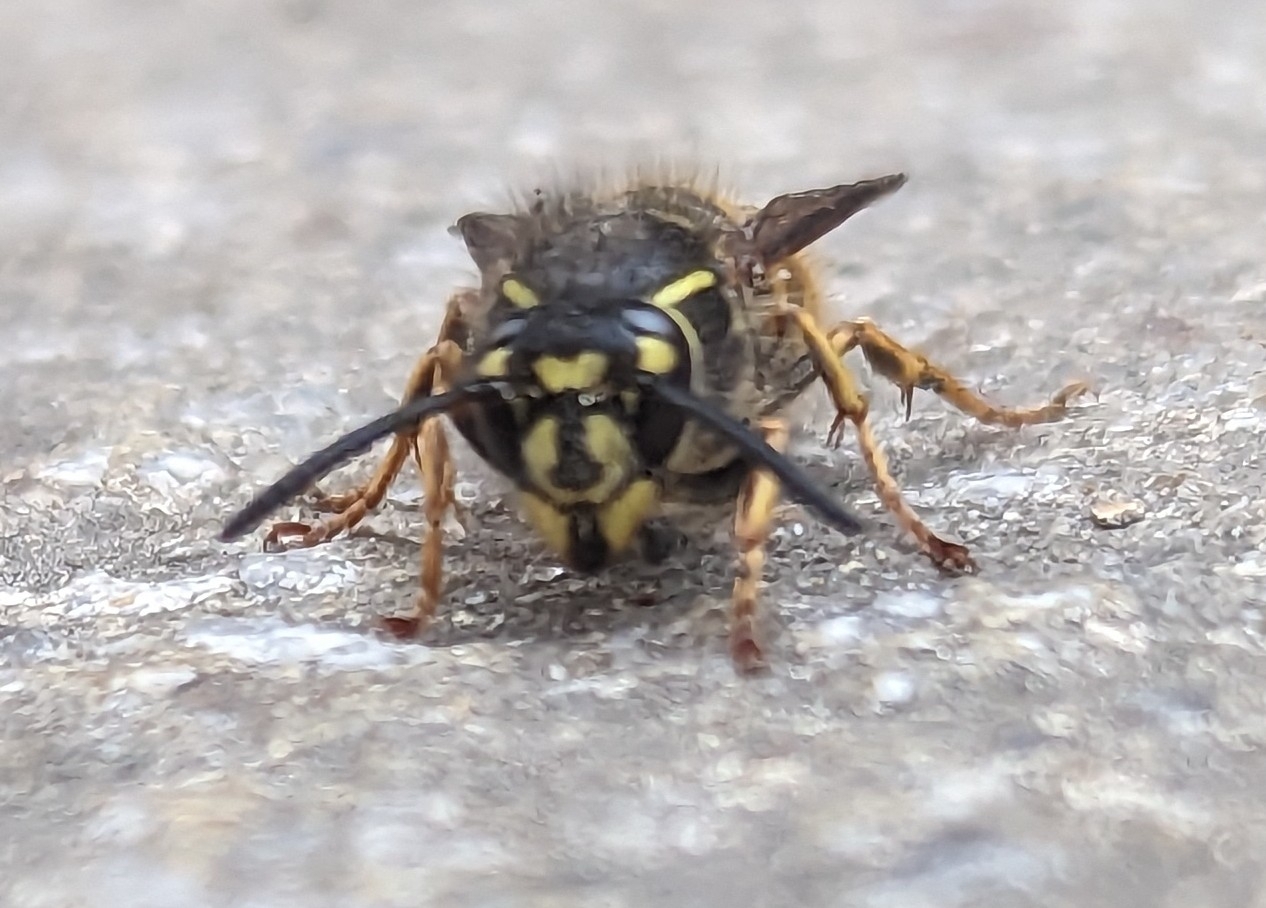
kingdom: Animalia
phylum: Arthropoda
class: Insecta
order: Hymenoptera
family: Vespidae
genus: Vespula
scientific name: Vespula vulgaris
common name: Common wasp
